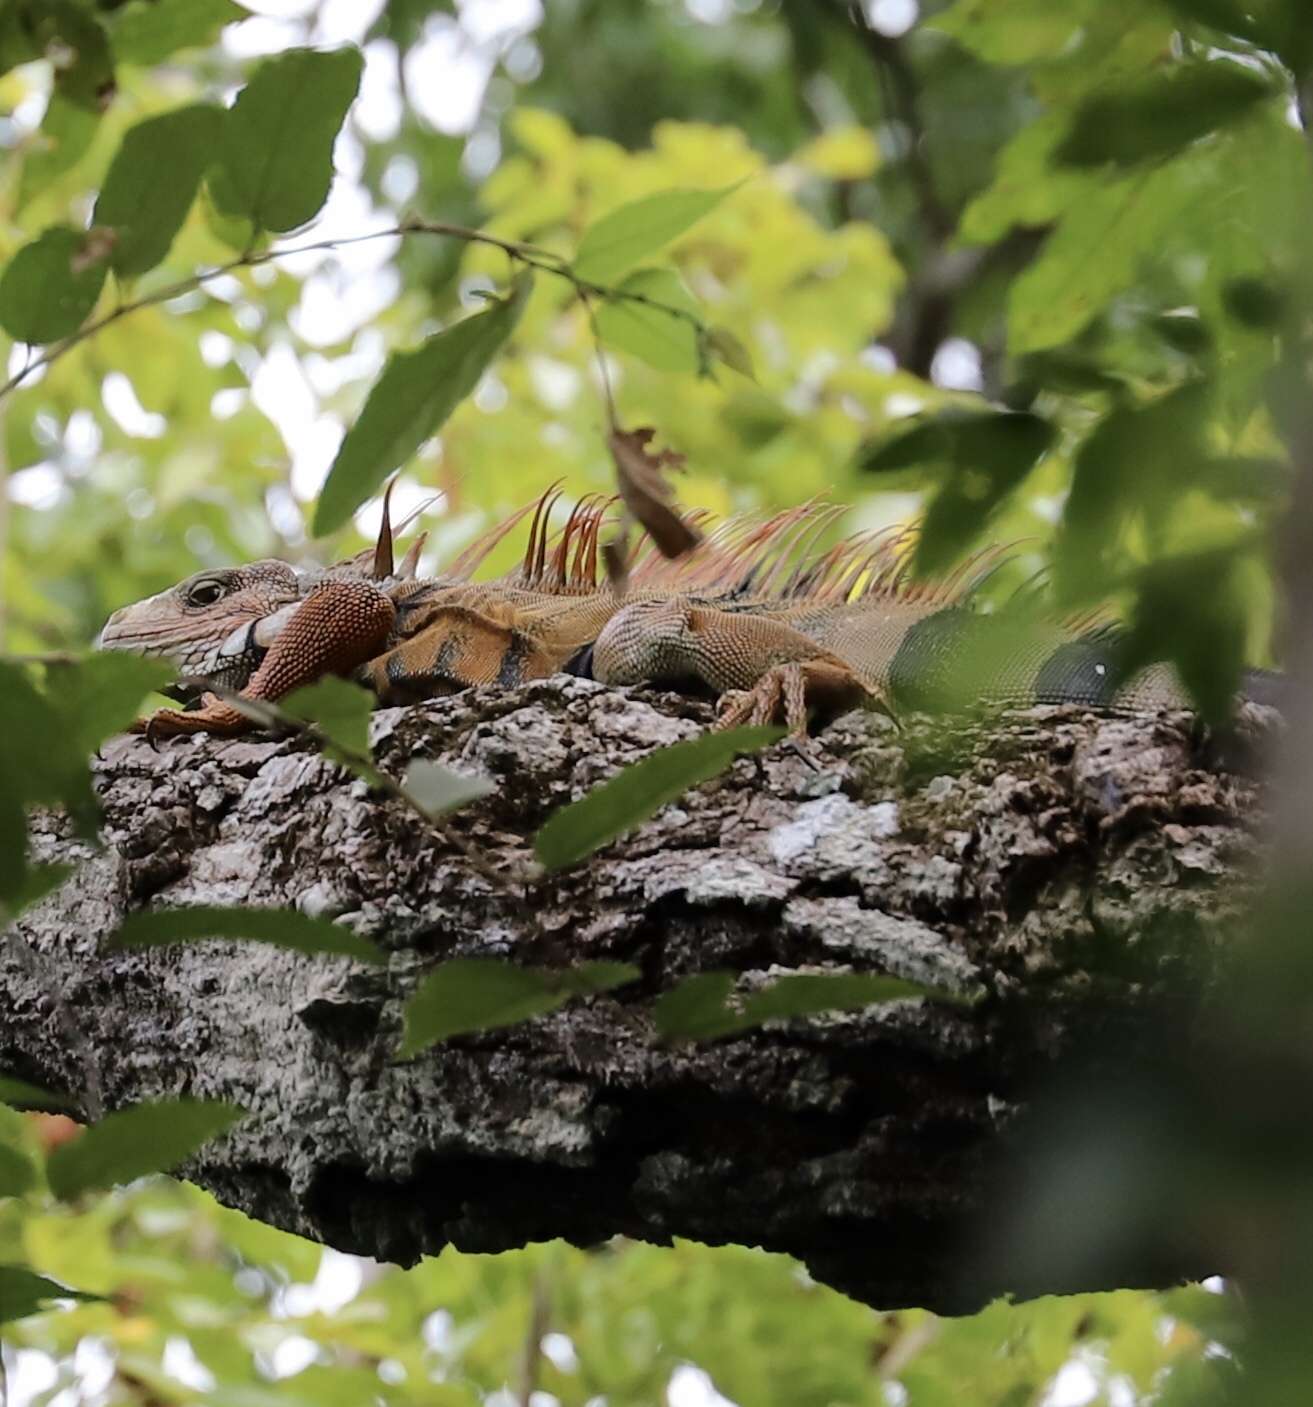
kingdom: Animalia
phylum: Chordata
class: Squamata
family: Iguanidae
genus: Iguana
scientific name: Iguana iguana
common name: Green iguana
